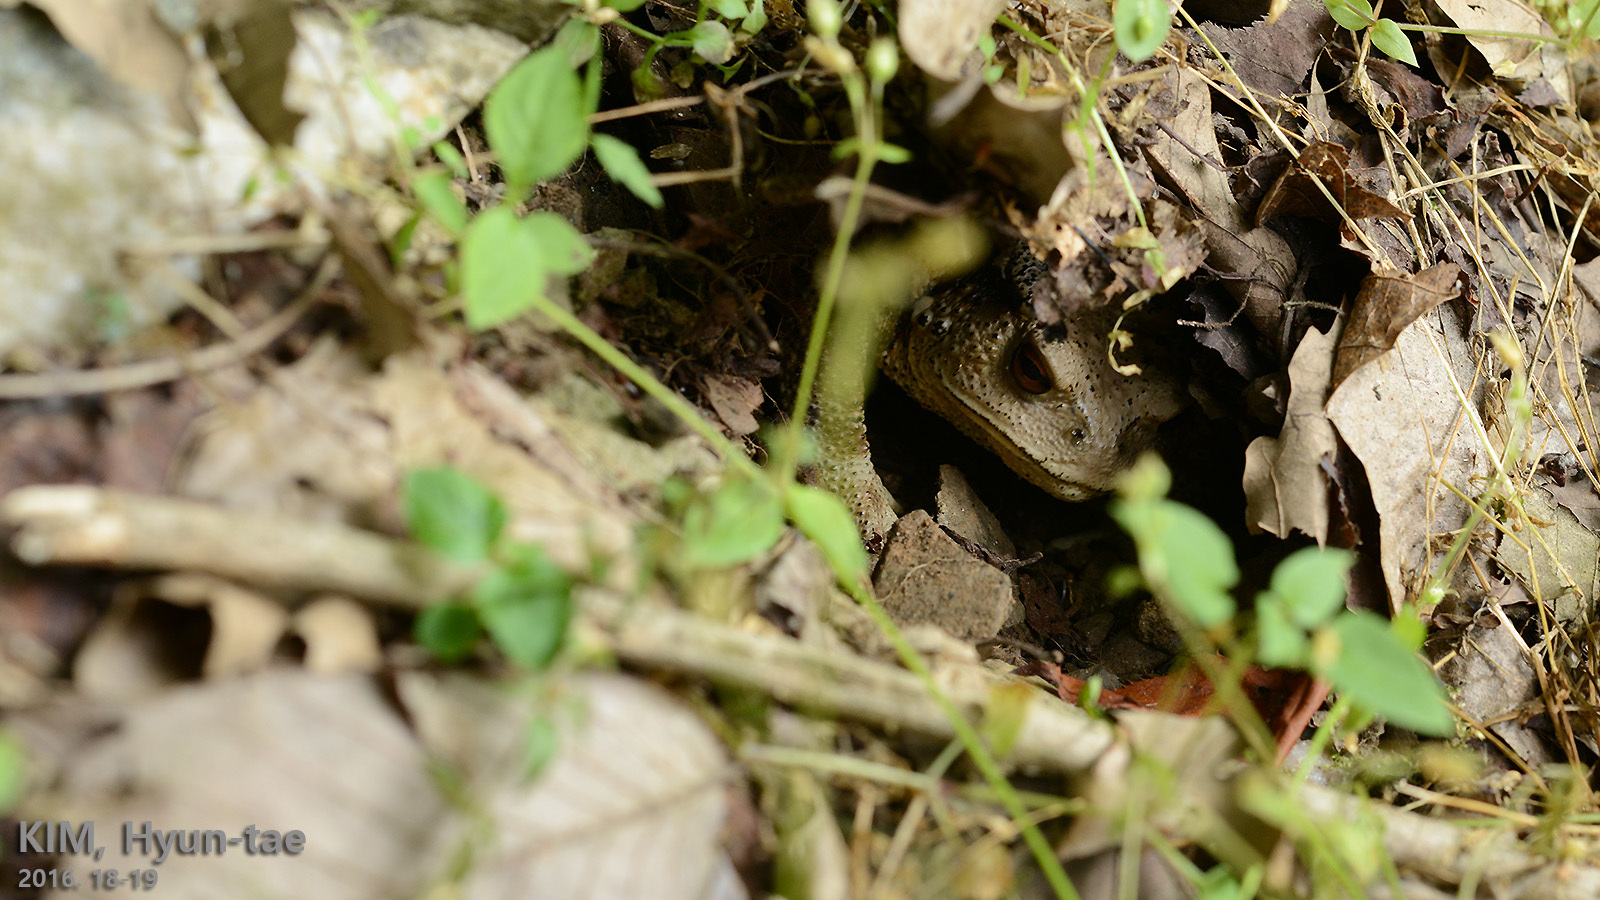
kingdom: Animalia
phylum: Chordata
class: Amphibia
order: Anura
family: Bufonidae
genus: Bufo
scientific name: Bufo gargarizans
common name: Asiatic toad
